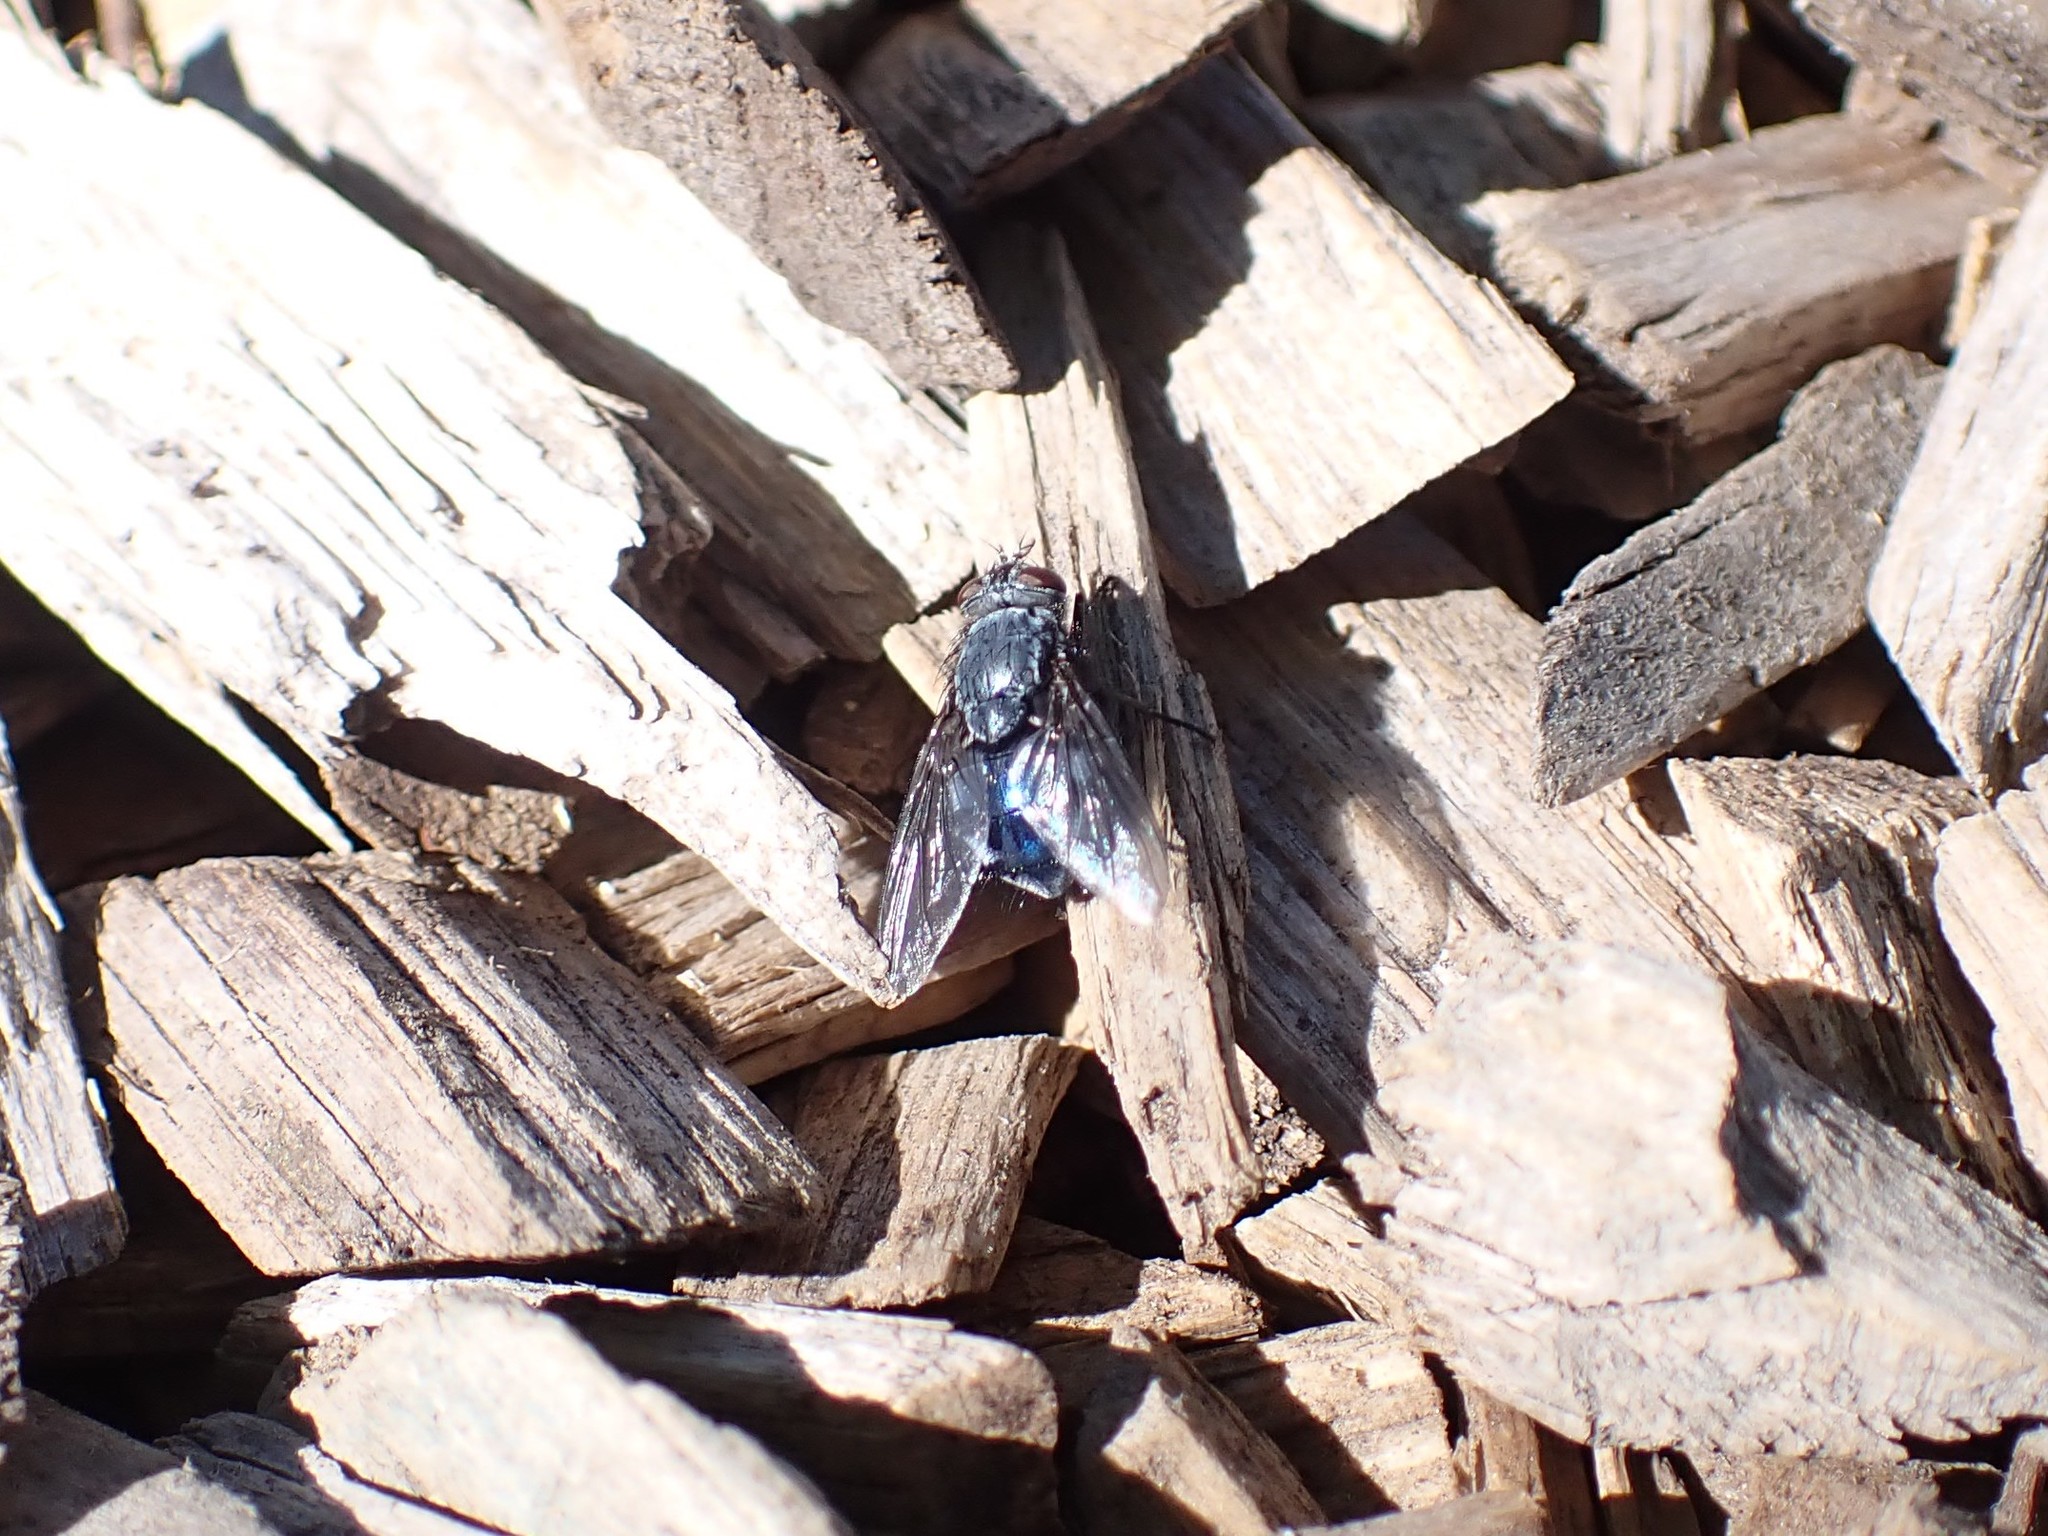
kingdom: Animalia
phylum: Arthropoda
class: Insecta
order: Diptera
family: Calliphoridae
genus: Calliphora
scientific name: Calliphora vicina
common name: Common blow flie
